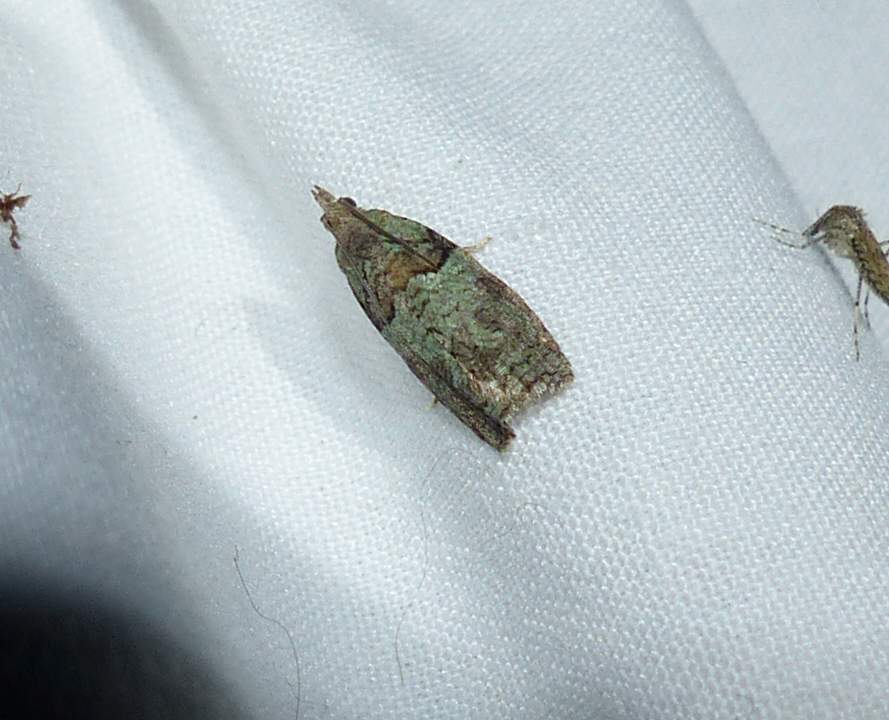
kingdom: Animalia
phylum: Arthropoda
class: Insecta
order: Lepidoptera
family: Tortricidae
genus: Epinotia
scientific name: Epinotia medioviridana
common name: Raspberry leaf-roller moth
